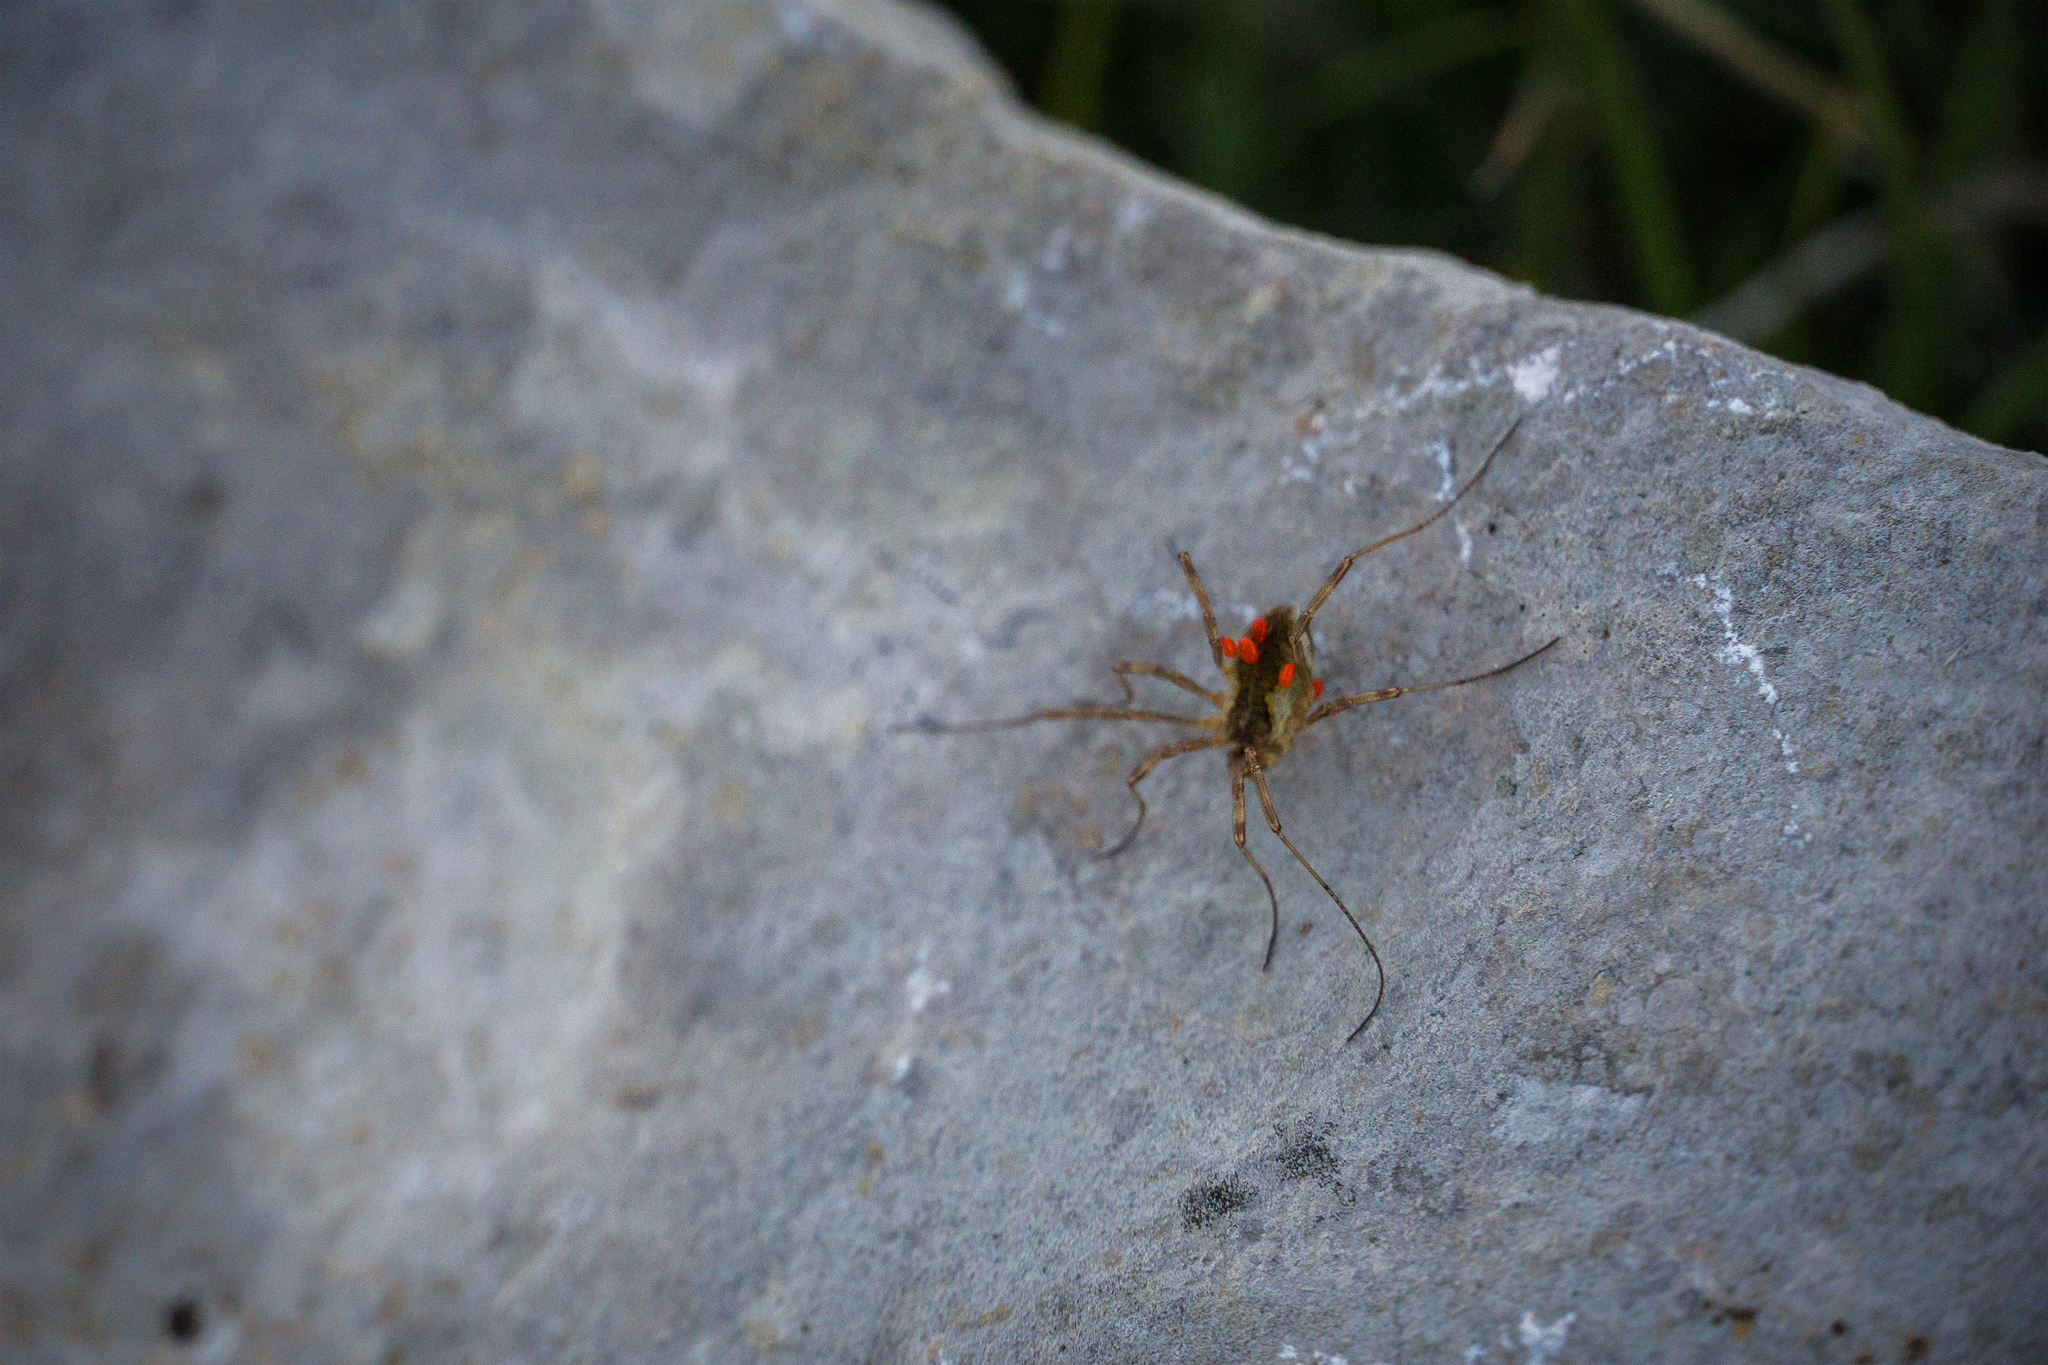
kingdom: Animalia
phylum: Arthropoda
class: Arachnida
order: Opiliones
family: Phalangiidae
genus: Mitopus
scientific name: Mitopus morio
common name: Saddleback harvestman
